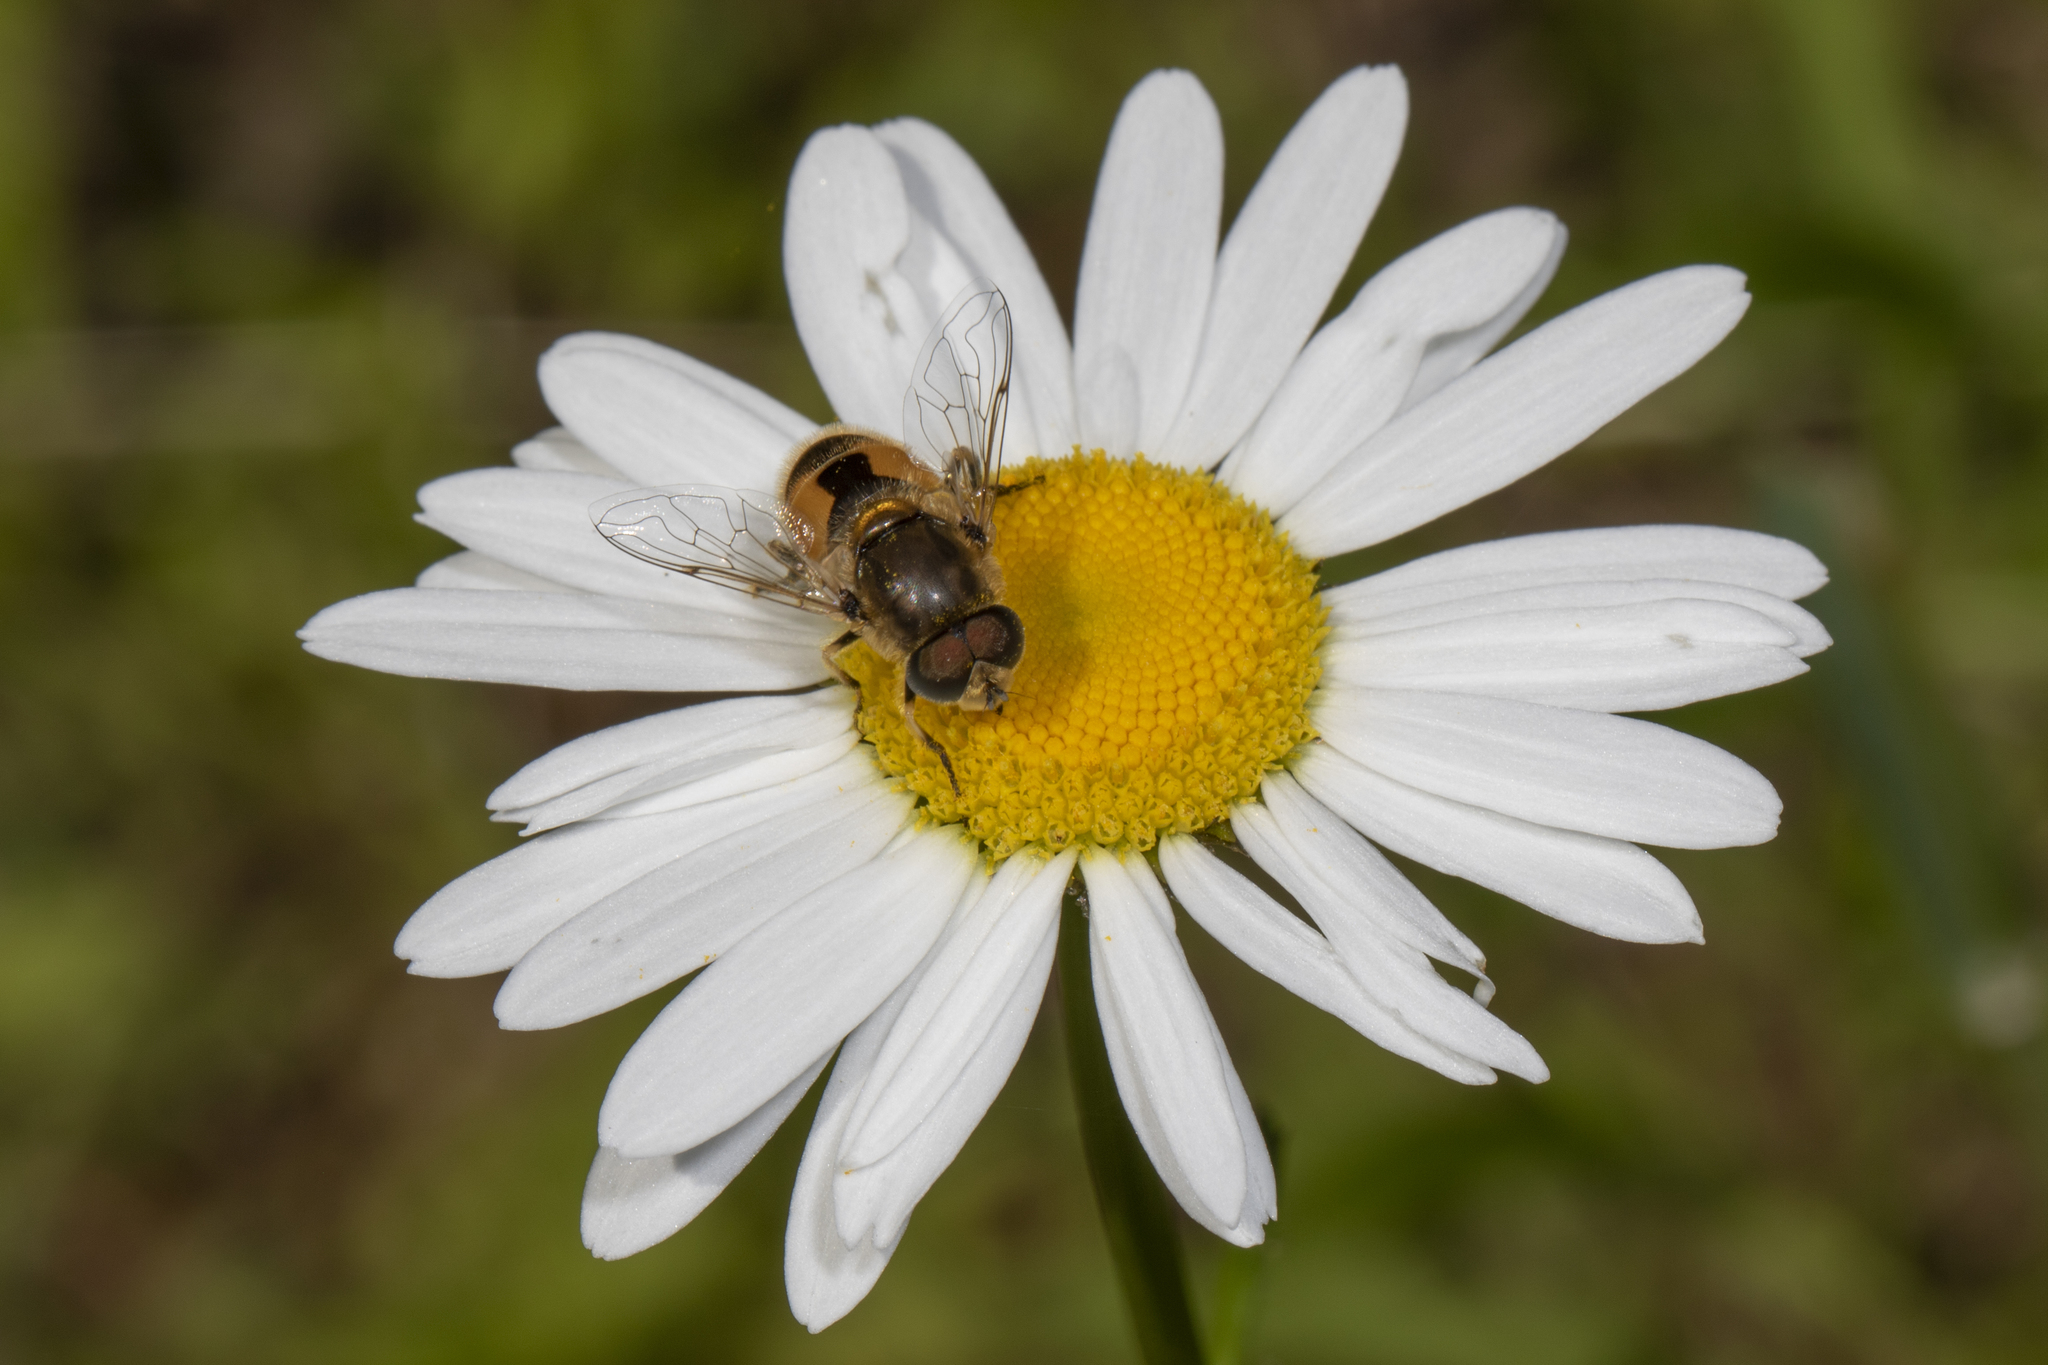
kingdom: Animalia
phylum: Arthropoda
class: Insecta
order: Diptera
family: Syrphidae
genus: Eristalis
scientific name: Eristalis arbustorum
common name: Hover fly
